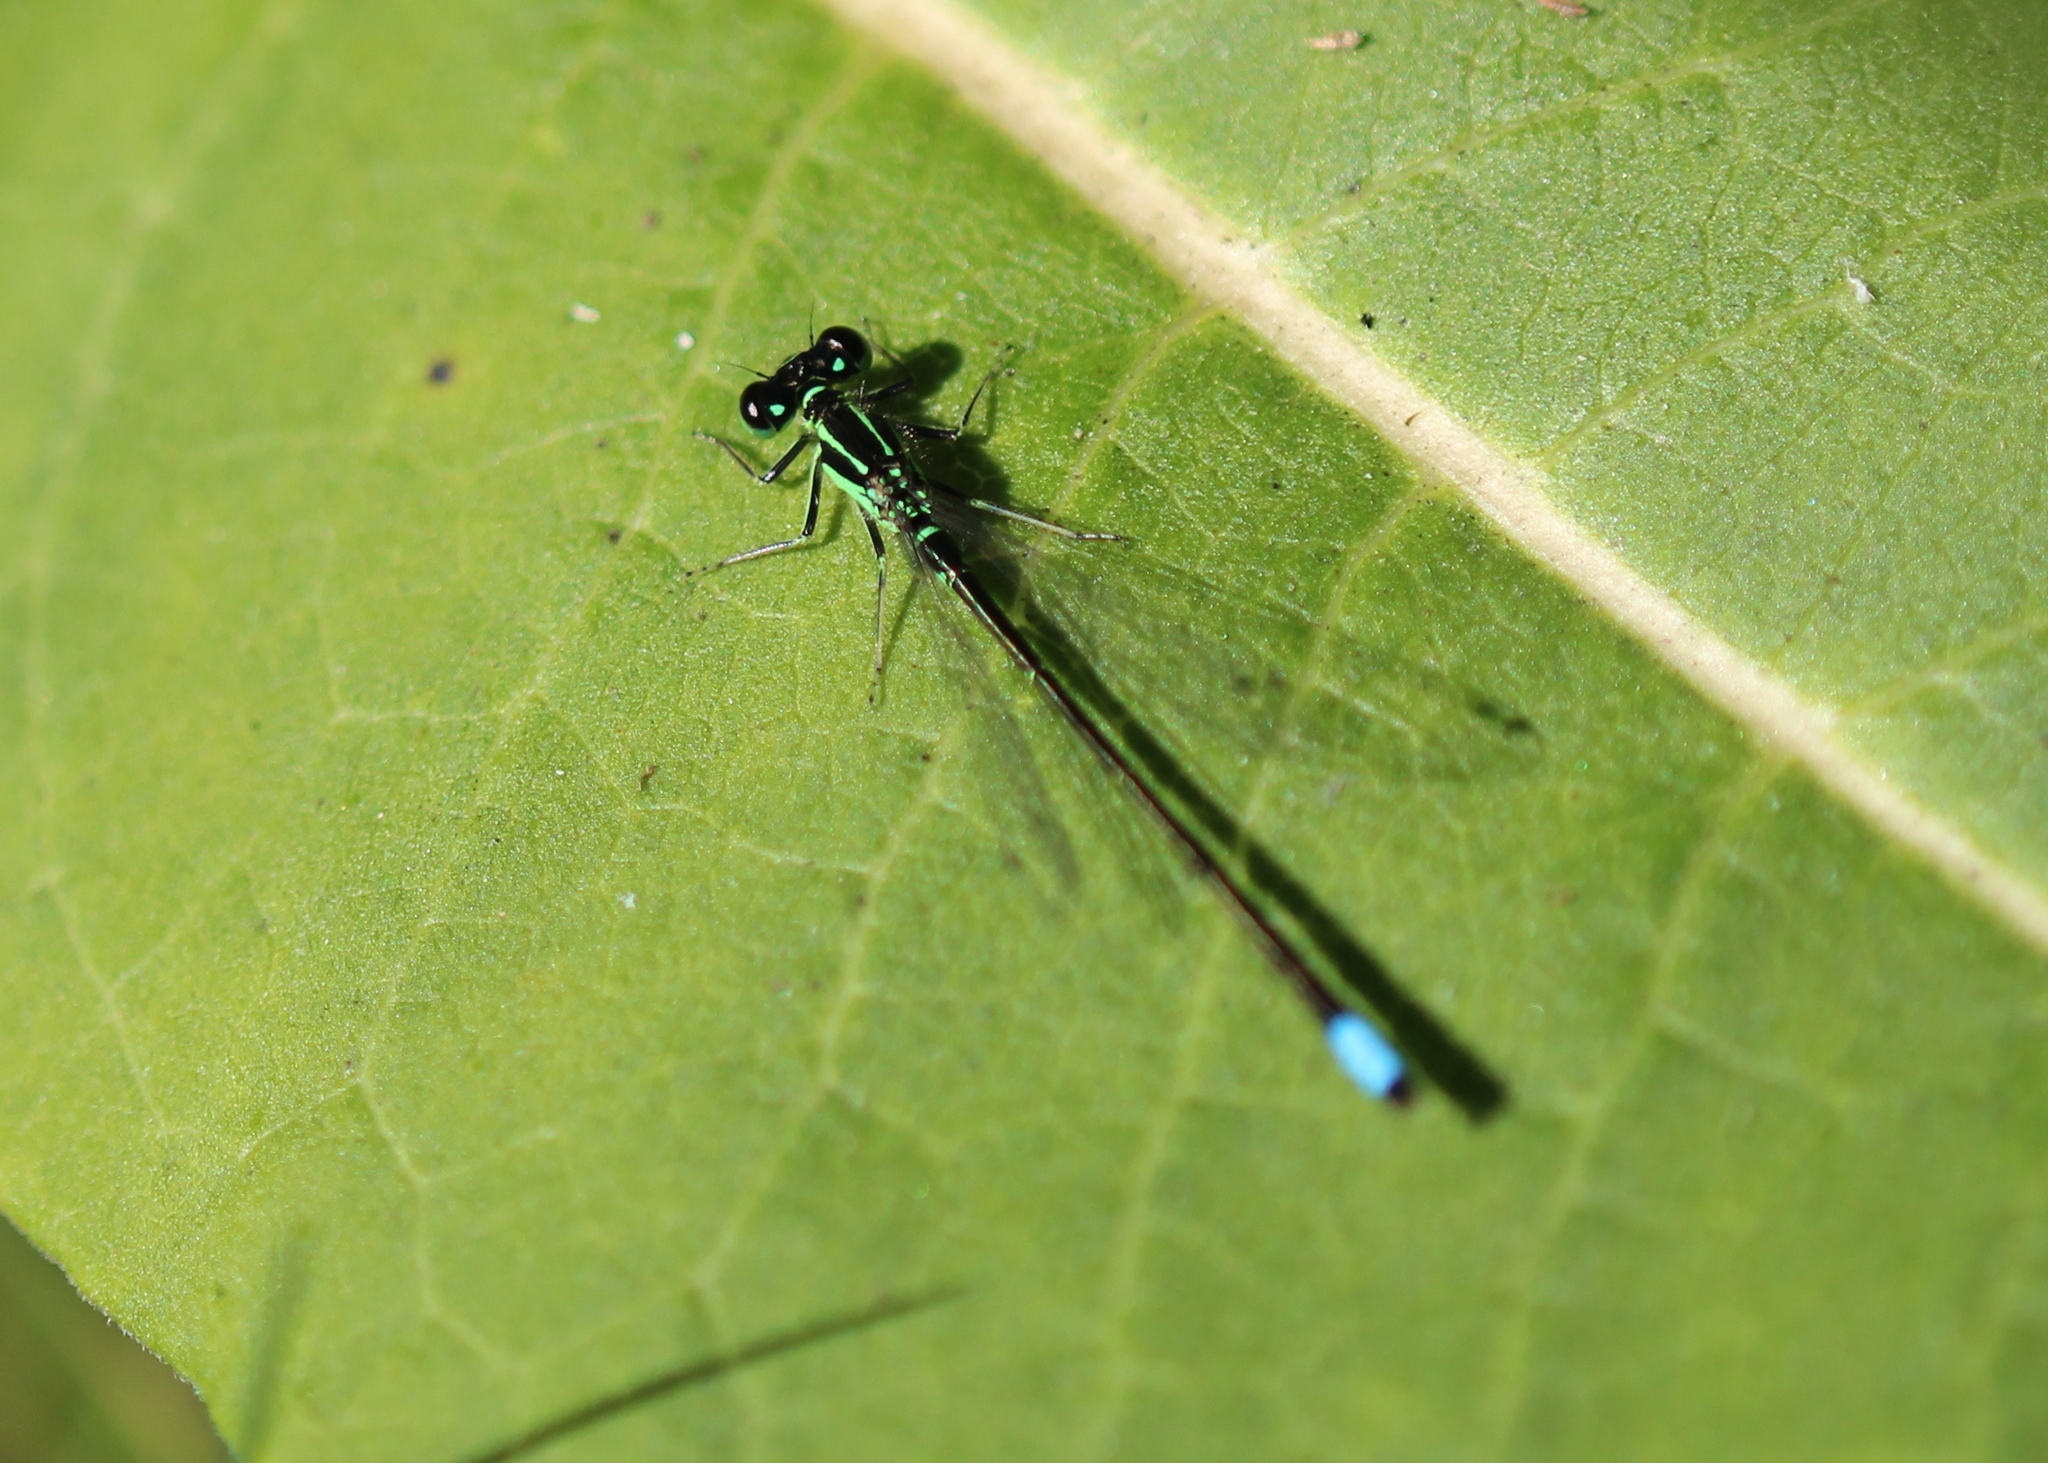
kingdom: Animalia
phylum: Arthropoda
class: Insecta
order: Odonata
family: Coenagrionidae
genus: Ischnura
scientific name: Ischnura verticalis
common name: Eastern forktail
